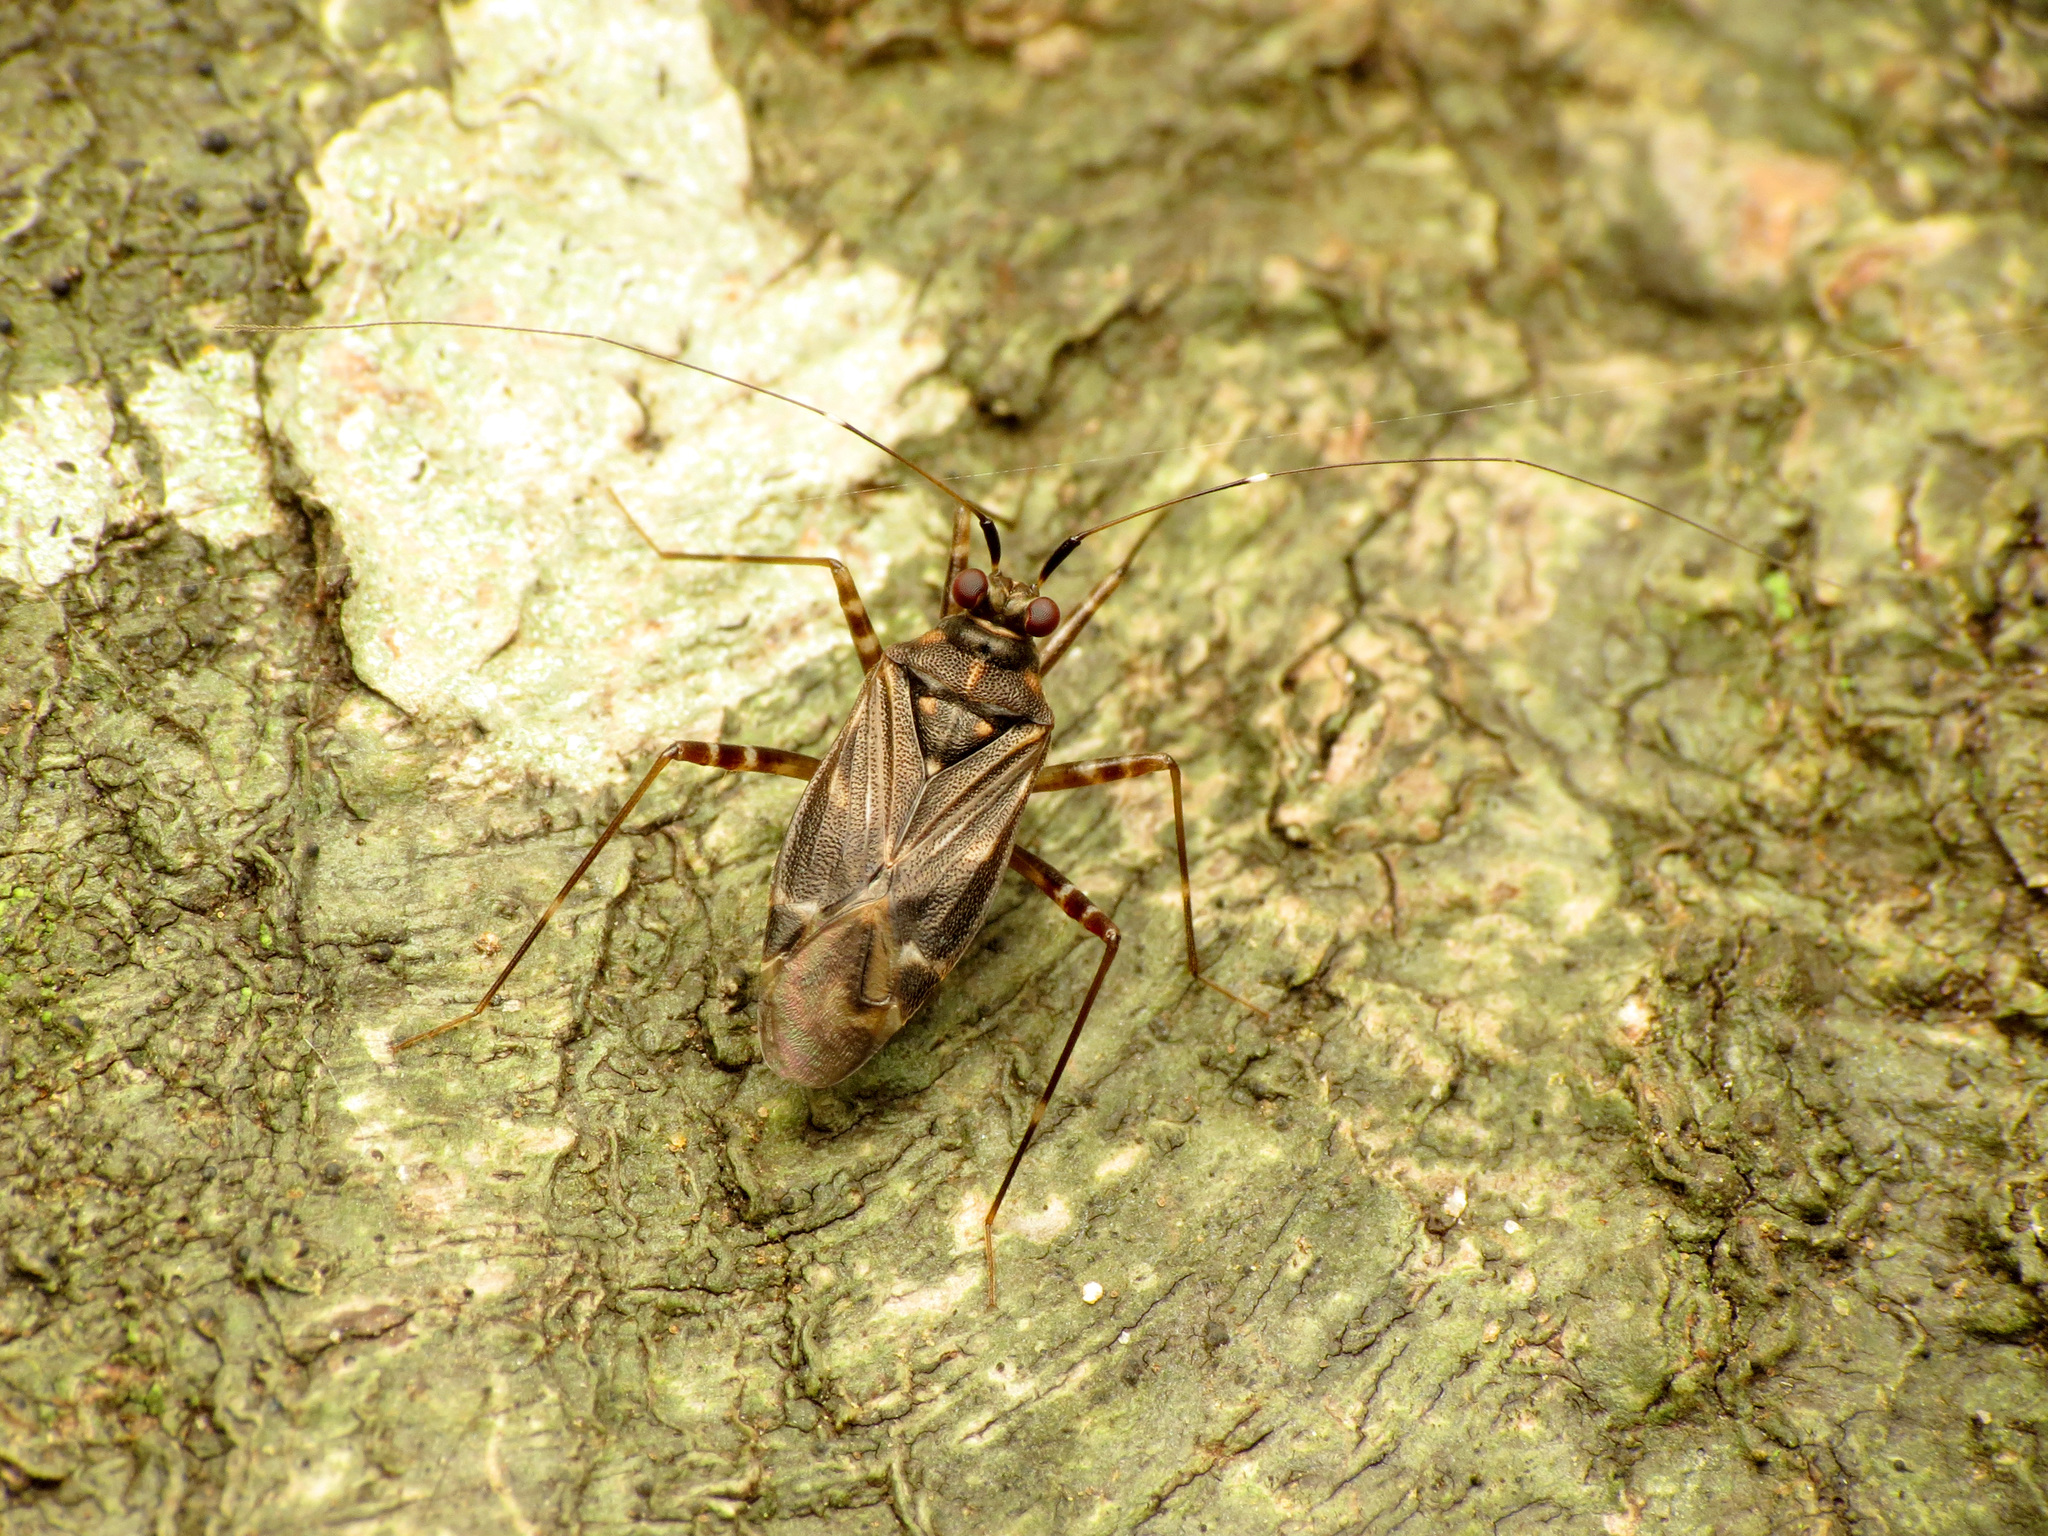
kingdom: Animalia
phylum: Arthropoda
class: Insecta
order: Hemiptera
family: Miridae
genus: Cylapus
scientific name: Cylapus tenuicornis
